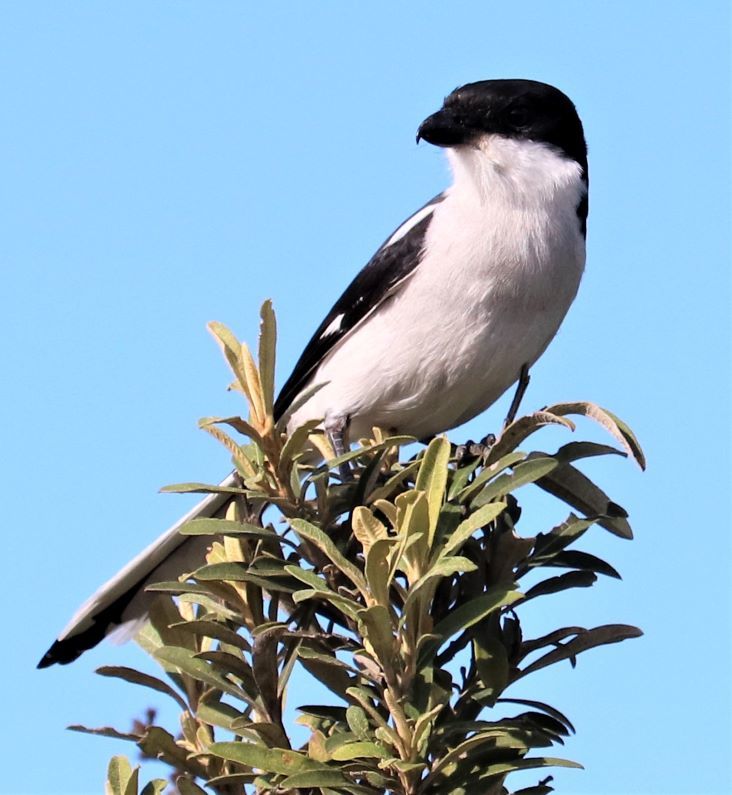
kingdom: Animalia
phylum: Chordata
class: Aves
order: Passeriformes
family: Laniidae
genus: Lanius
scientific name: Lanius collaris
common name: Southern fiscal
